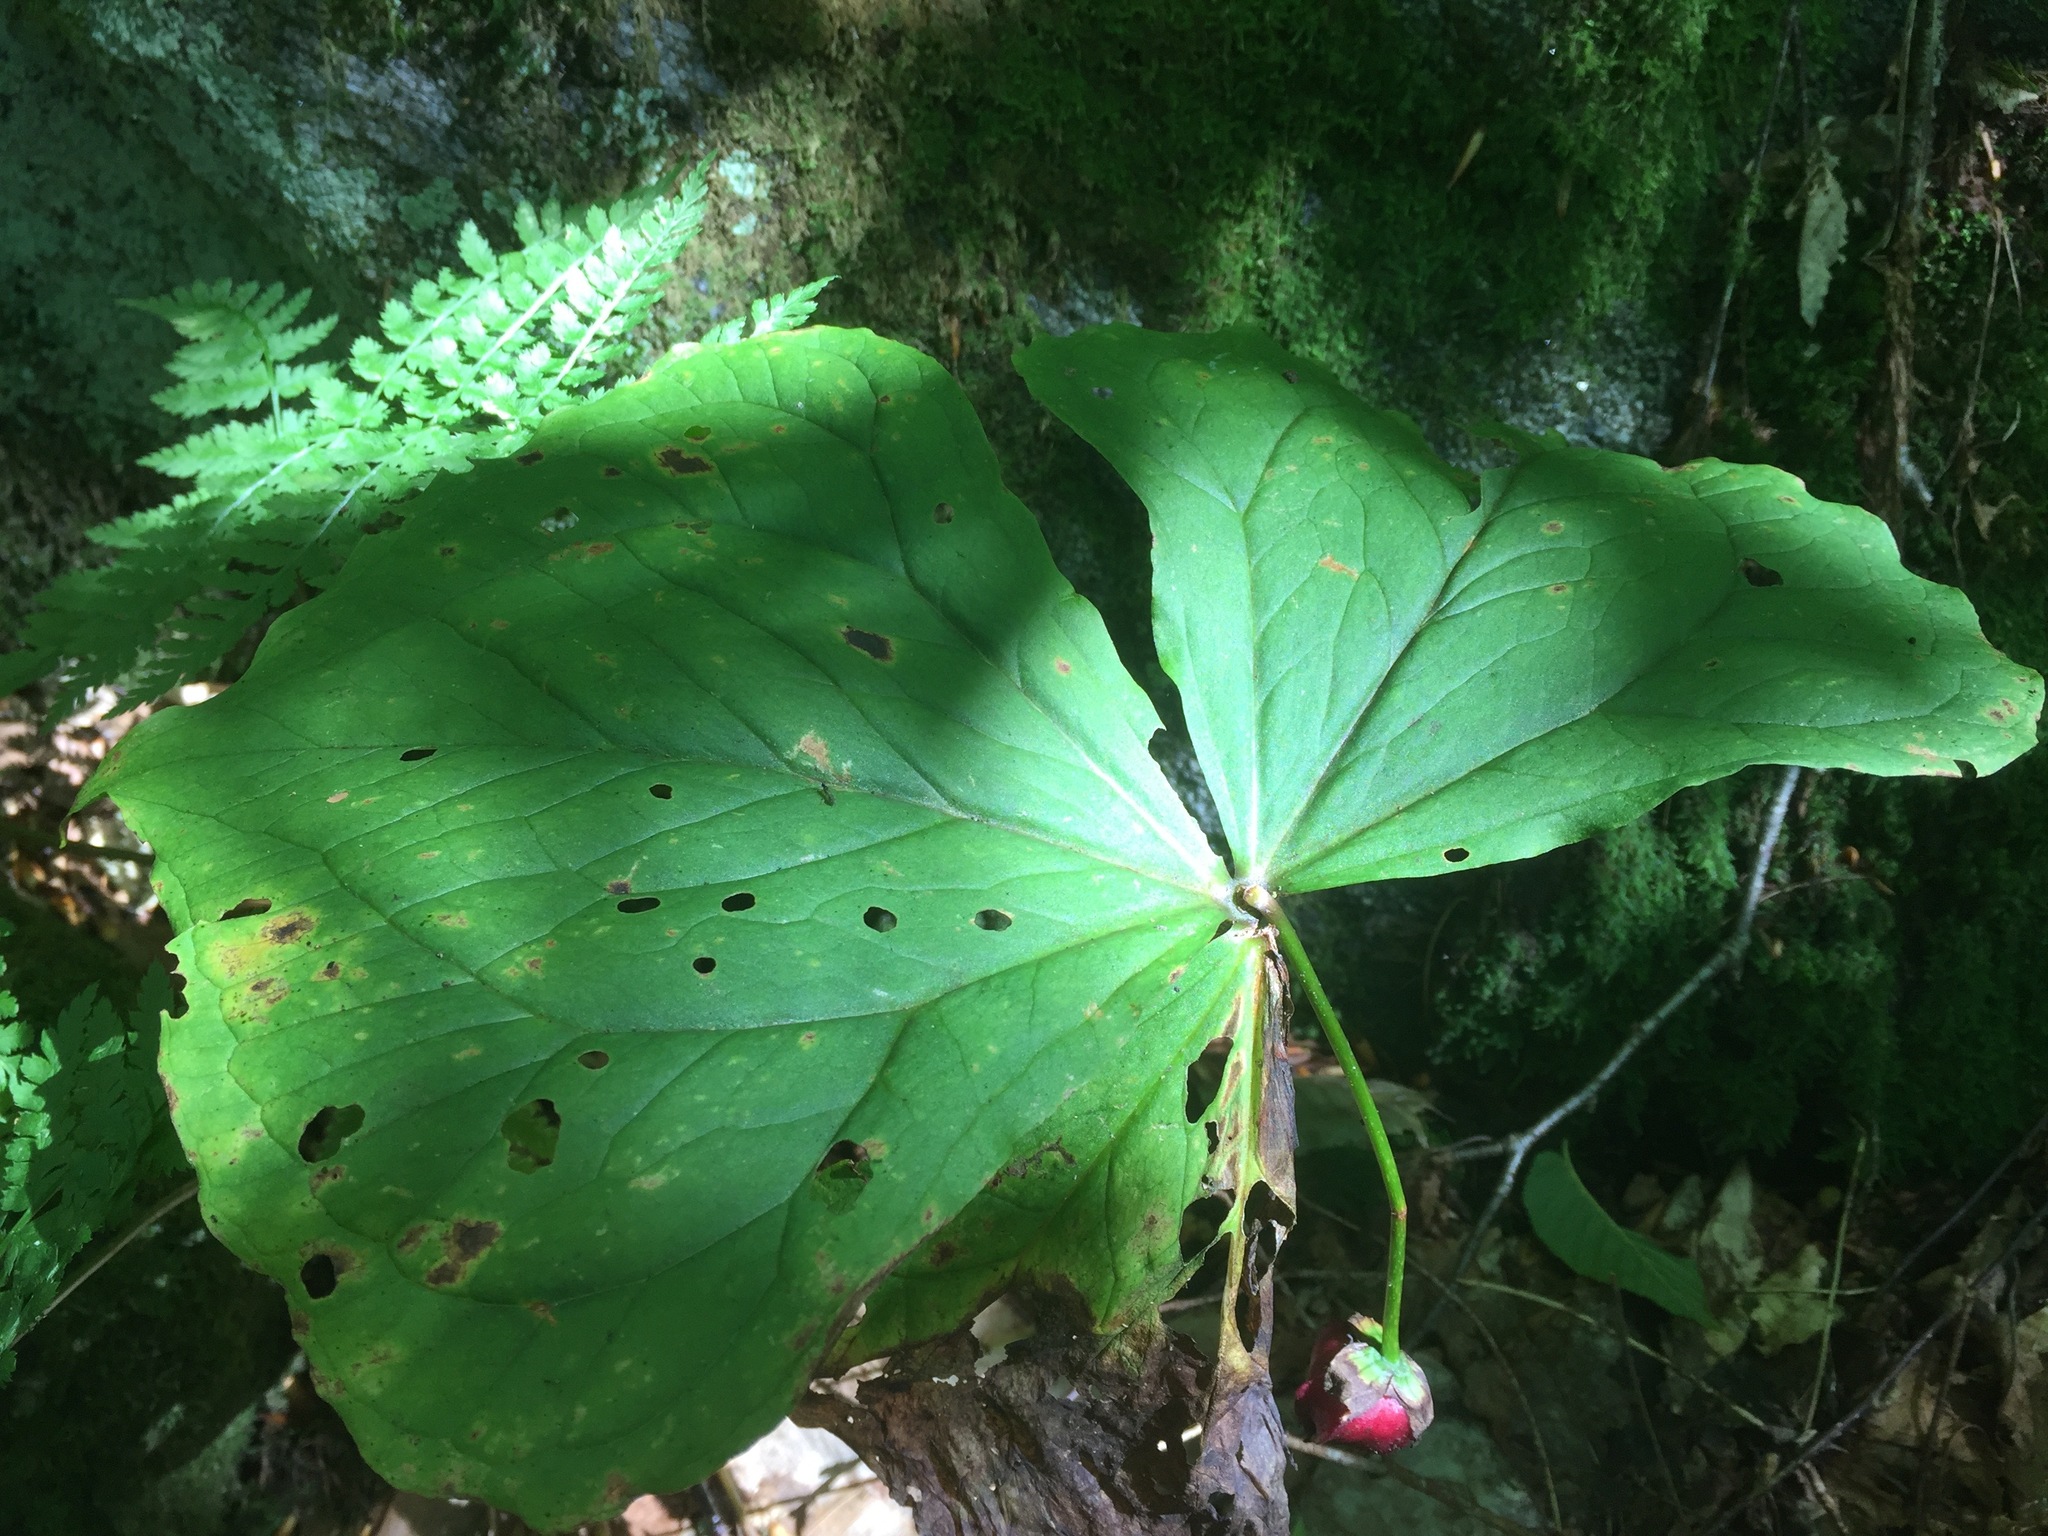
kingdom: Plantae
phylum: Tracheophyta
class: Liliopsida
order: Liliales
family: Melanthiaceae
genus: Trillium
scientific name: Trillium erectum
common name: Purple trillium
